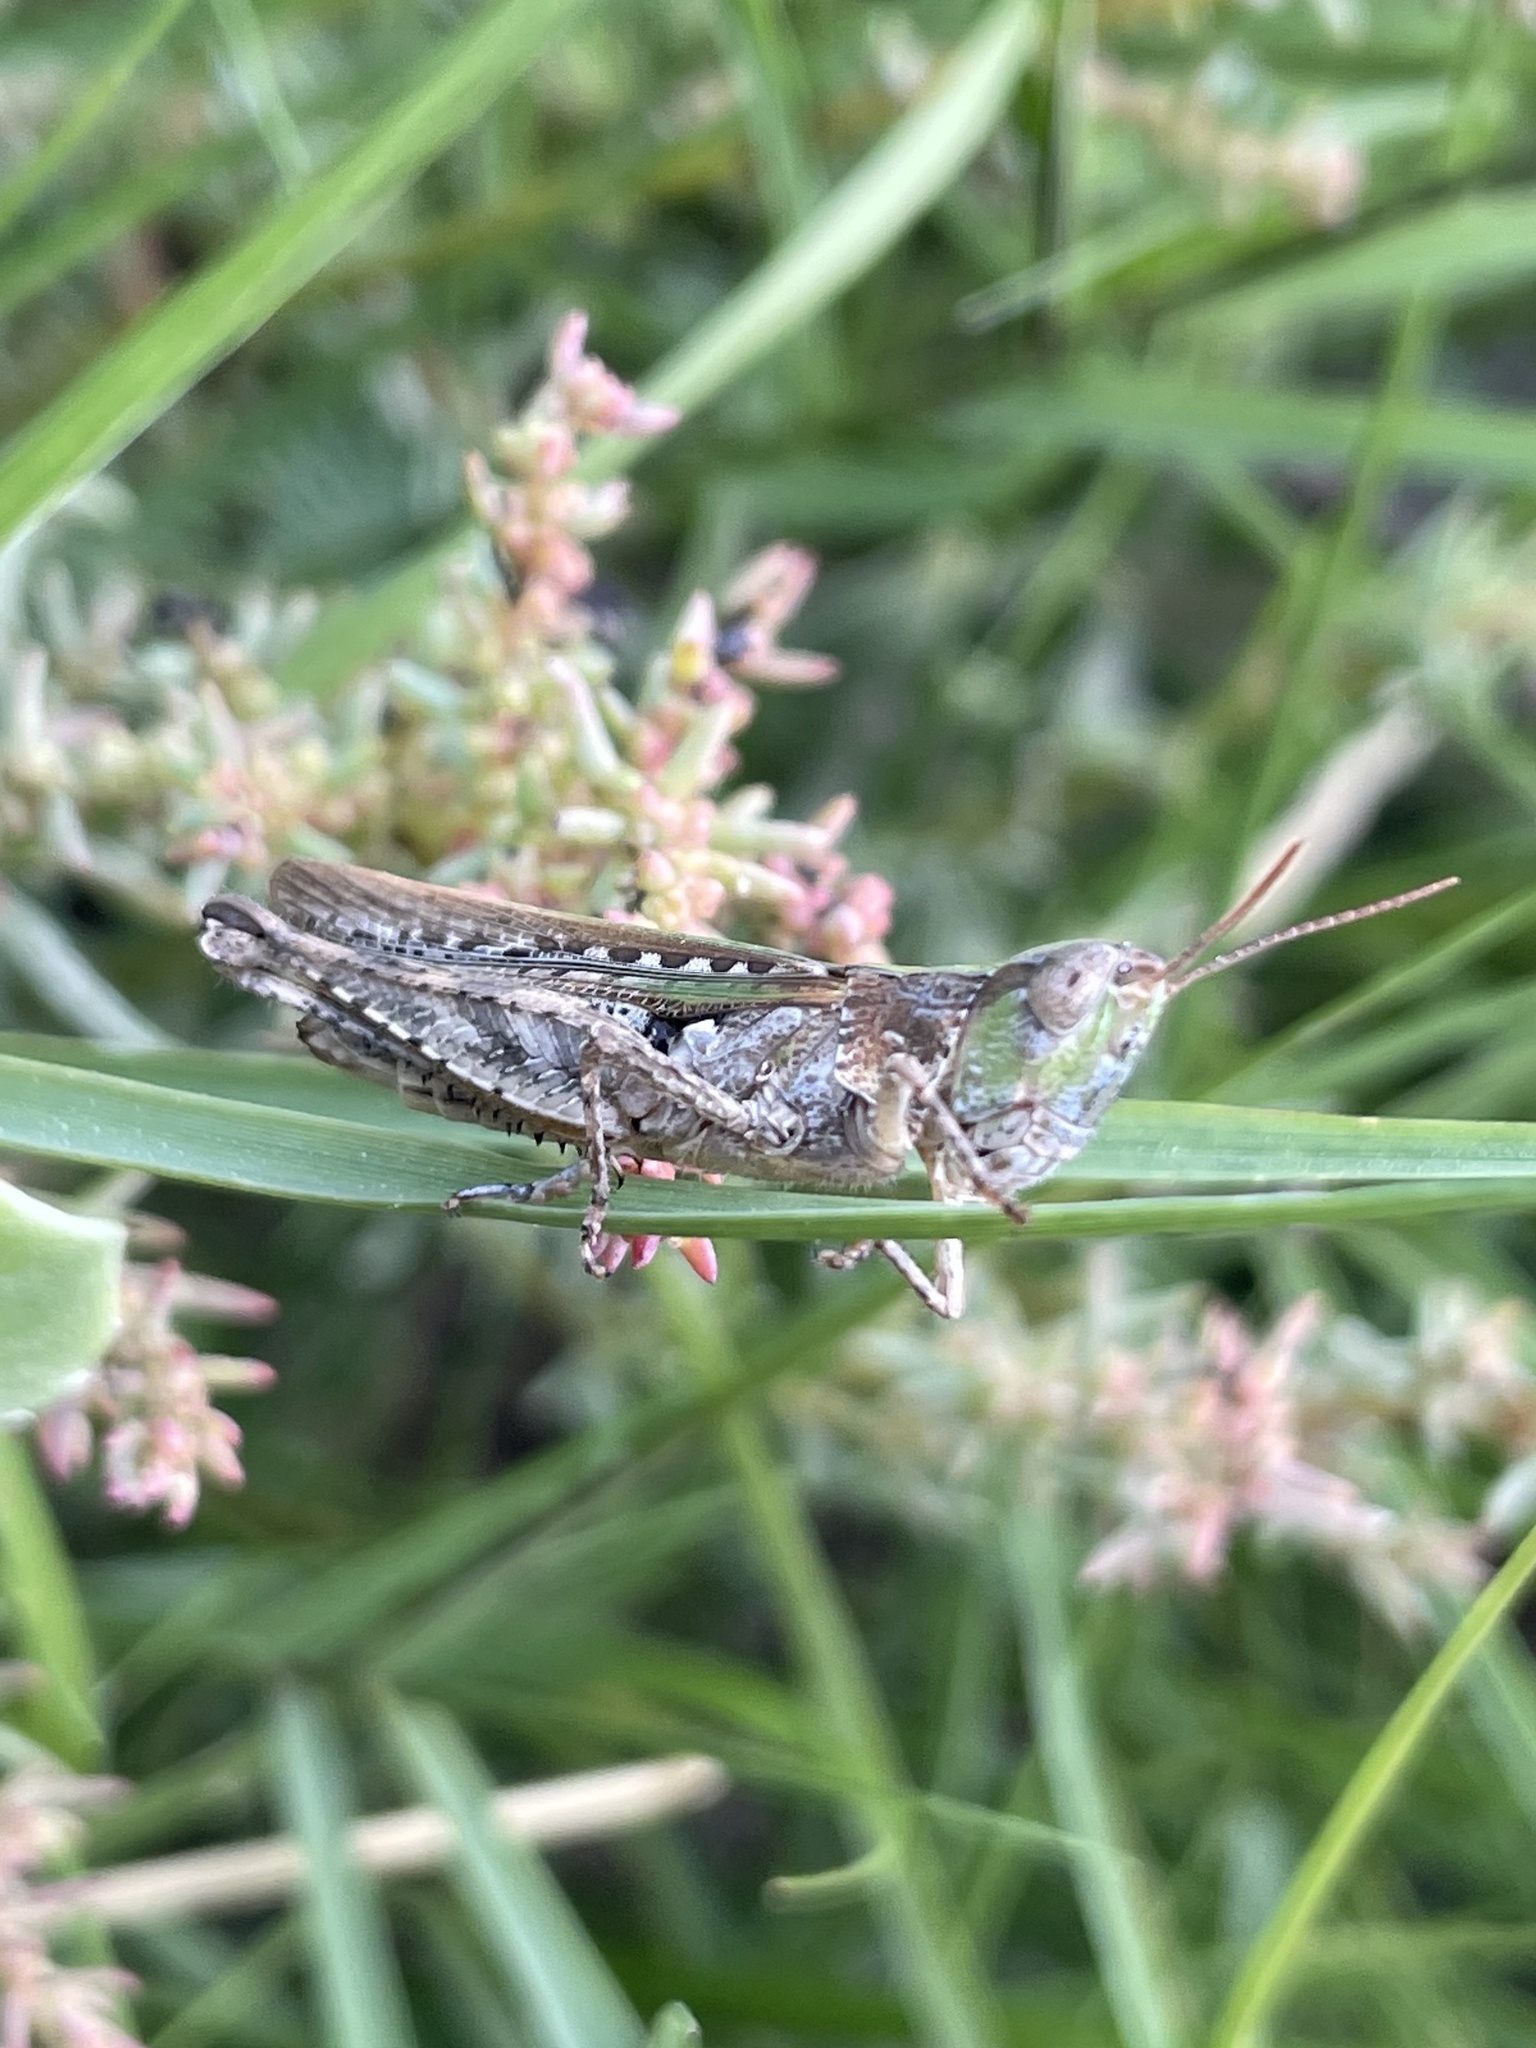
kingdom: Animalia
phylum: Arthropoda
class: Insecta
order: Orthoptera
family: Acrididae
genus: Orphulella
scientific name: Orphulella pelidna
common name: Spotted-wing grasshopper
